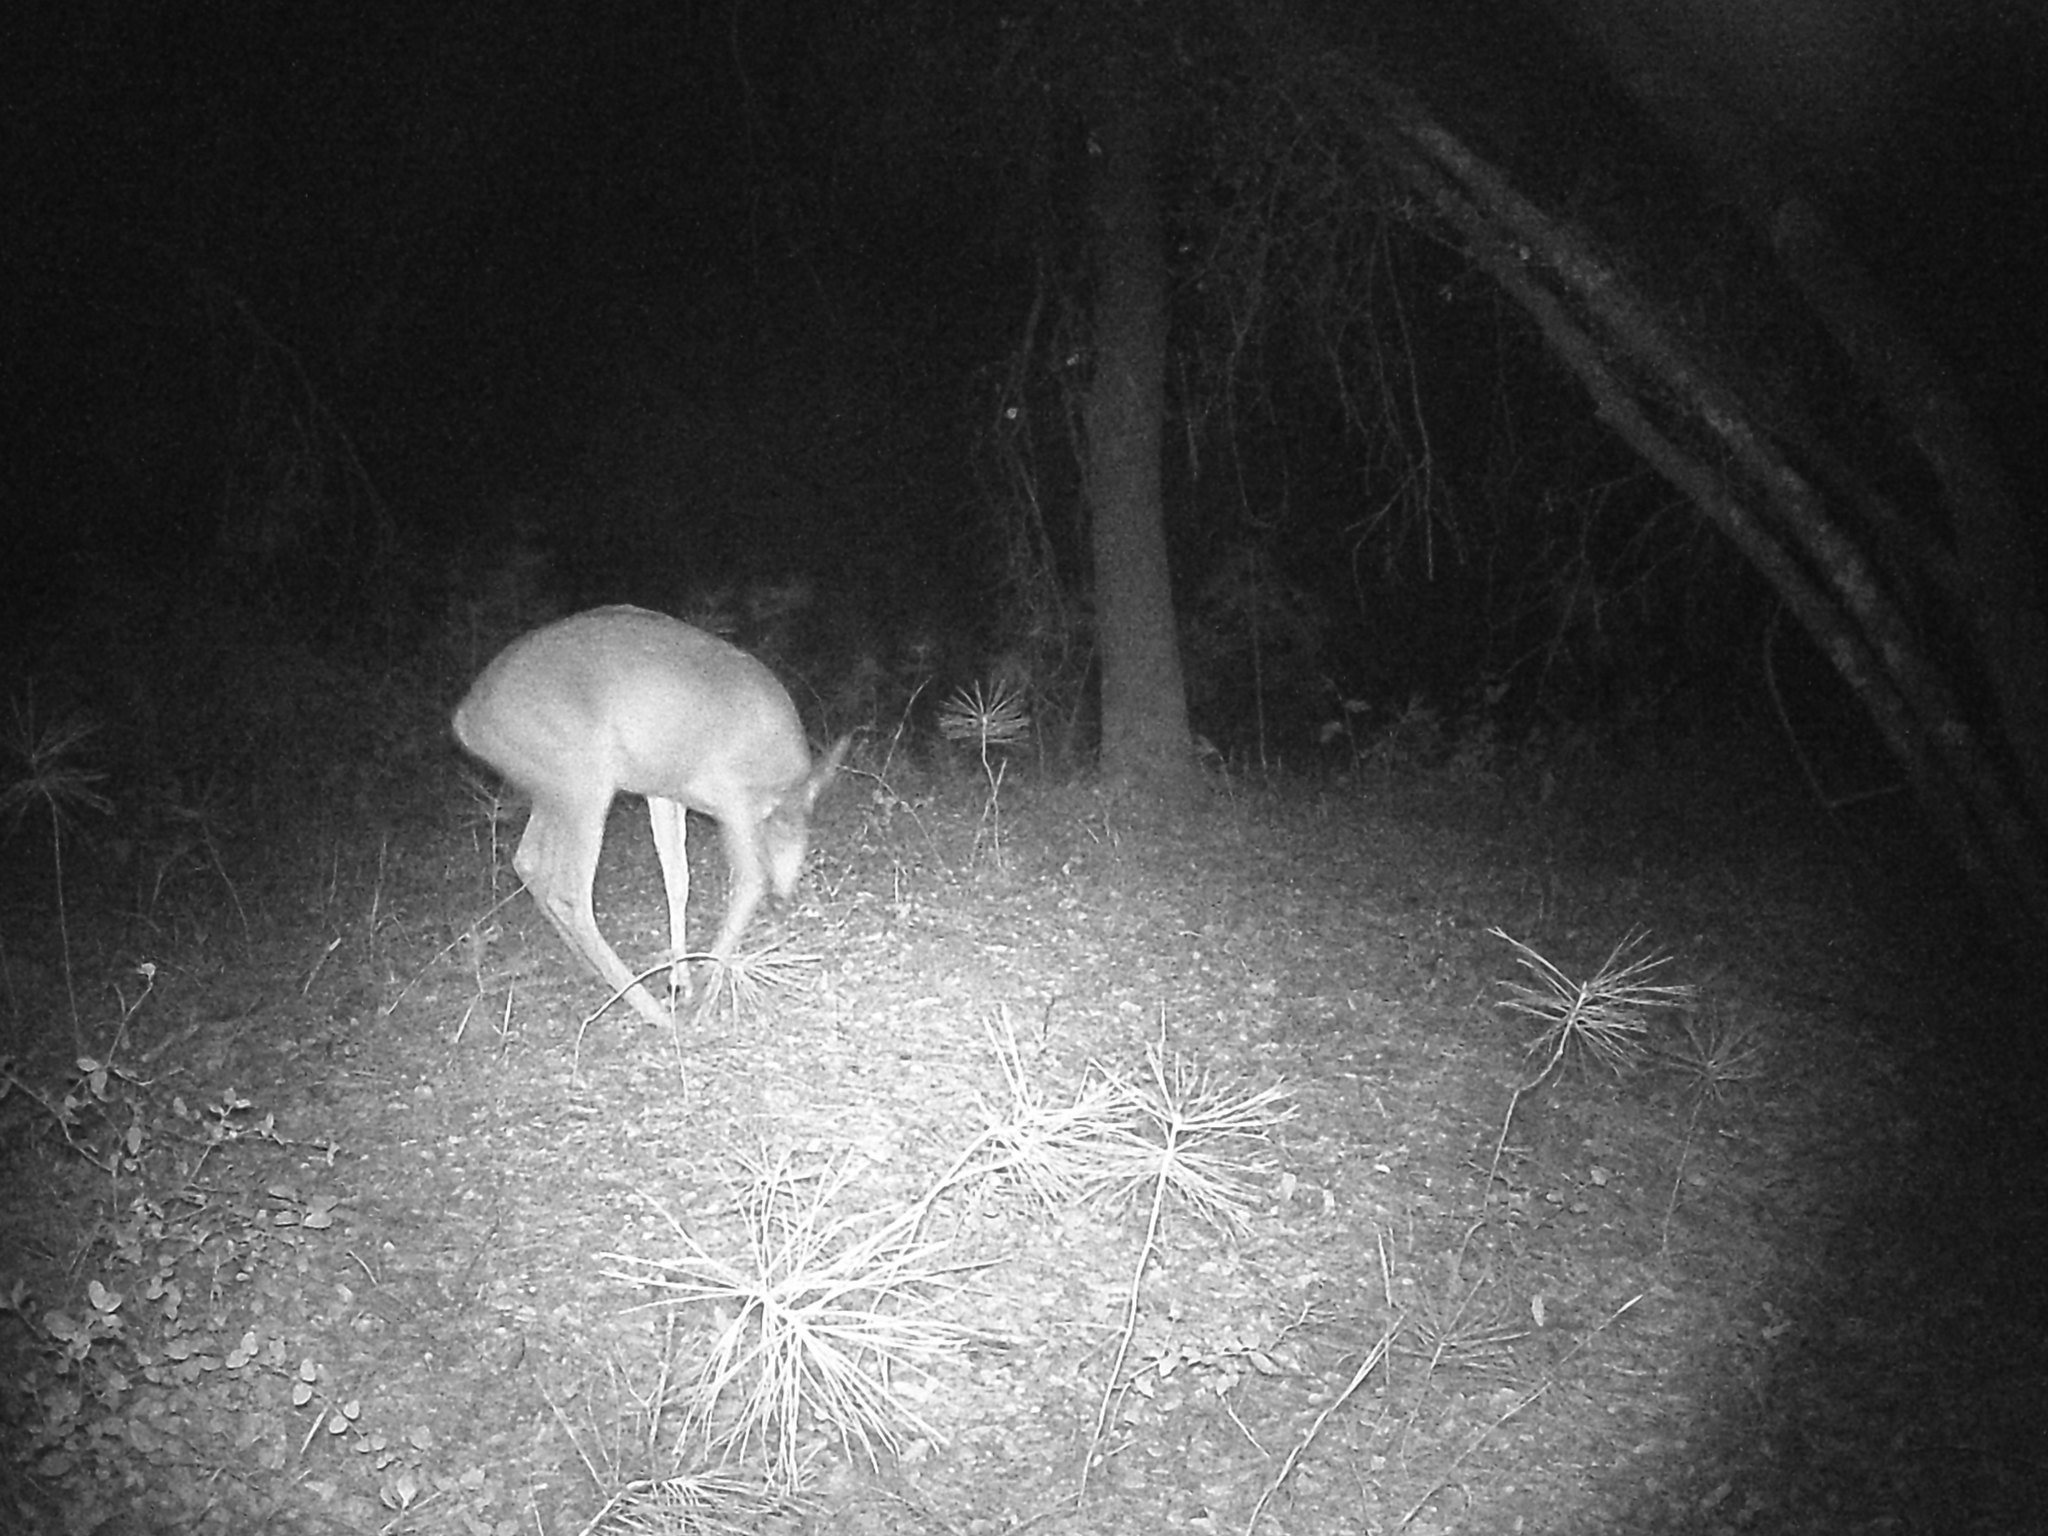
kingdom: Animalia
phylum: Chordata
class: Mammalia
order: Artiodactyla
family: Cervidae
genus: Odocoileus
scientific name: Odocoileus hemionus
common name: Mule deer
